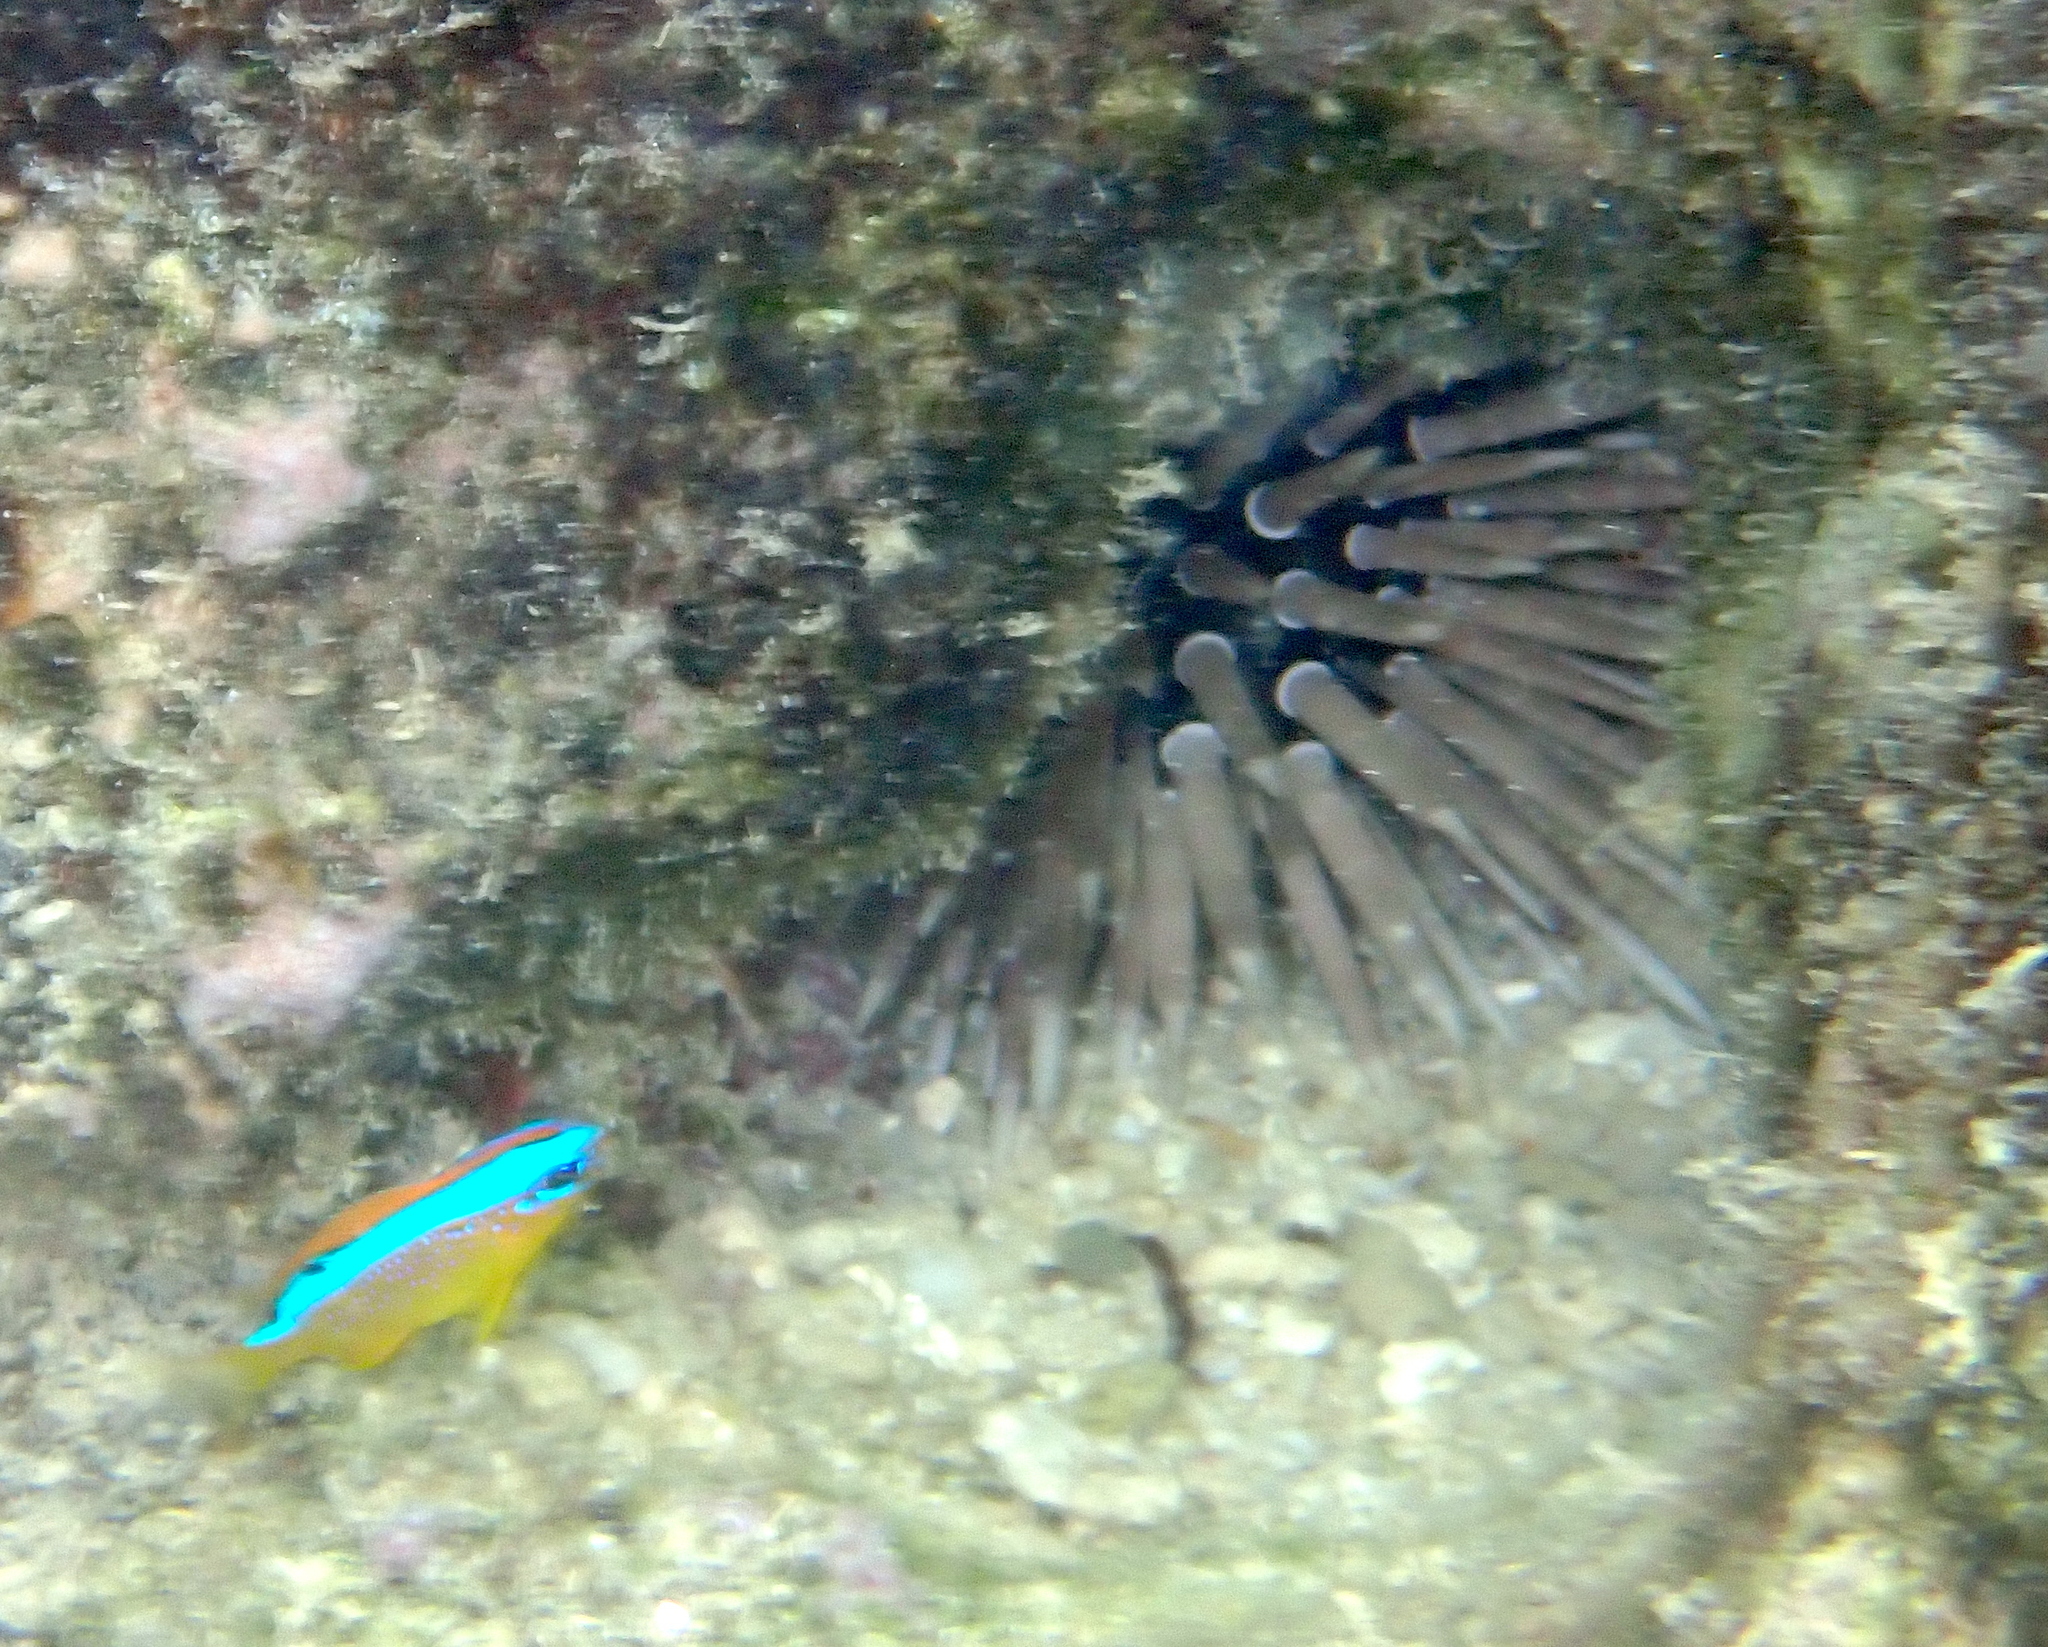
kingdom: Animalia
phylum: Echinodermata
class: Echinoidea
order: Camarodonta
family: Echinometridae
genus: Echinometra
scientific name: Echinometra mathaei
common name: Rock-boring urchin
